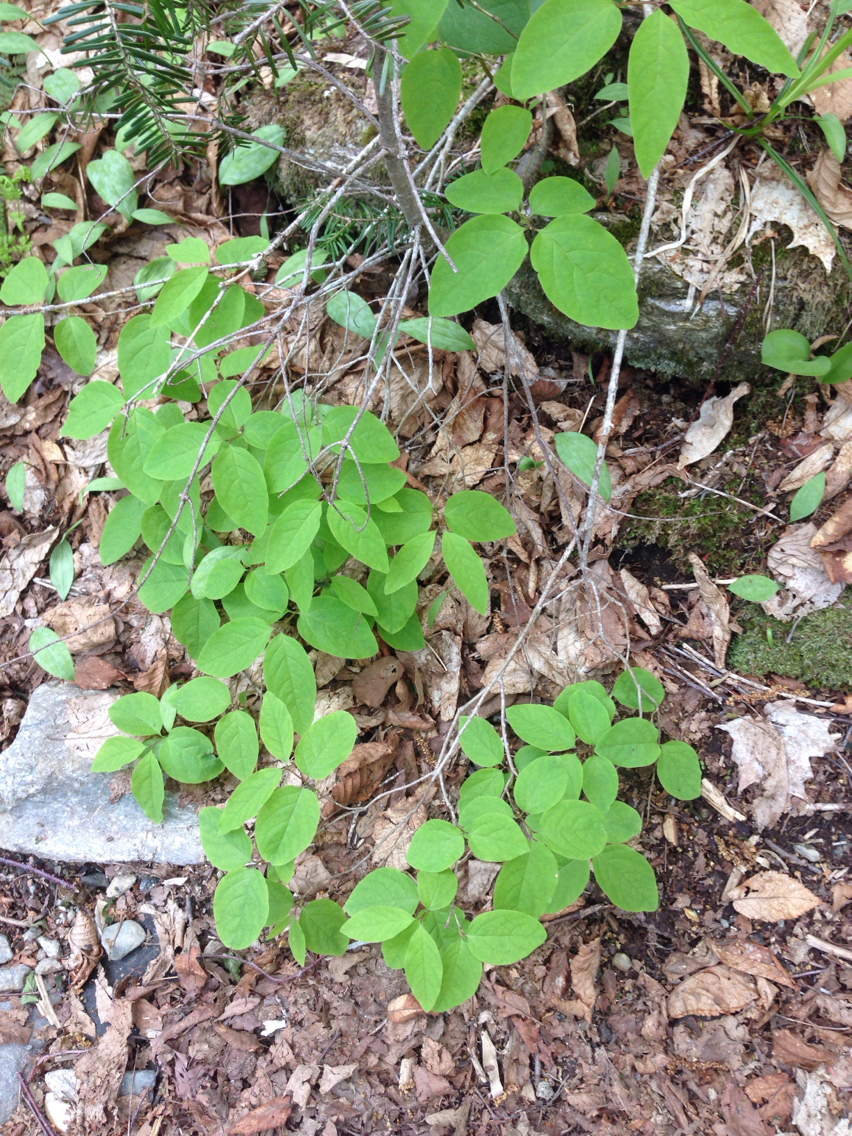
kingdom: Plantae
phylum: Tracheophyta
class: Magnoliopsida
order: Dipsacales
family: Caprifoliaceae
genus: Lonicera
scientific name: Lonicera canadensis
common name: American fly-honeysuckle
